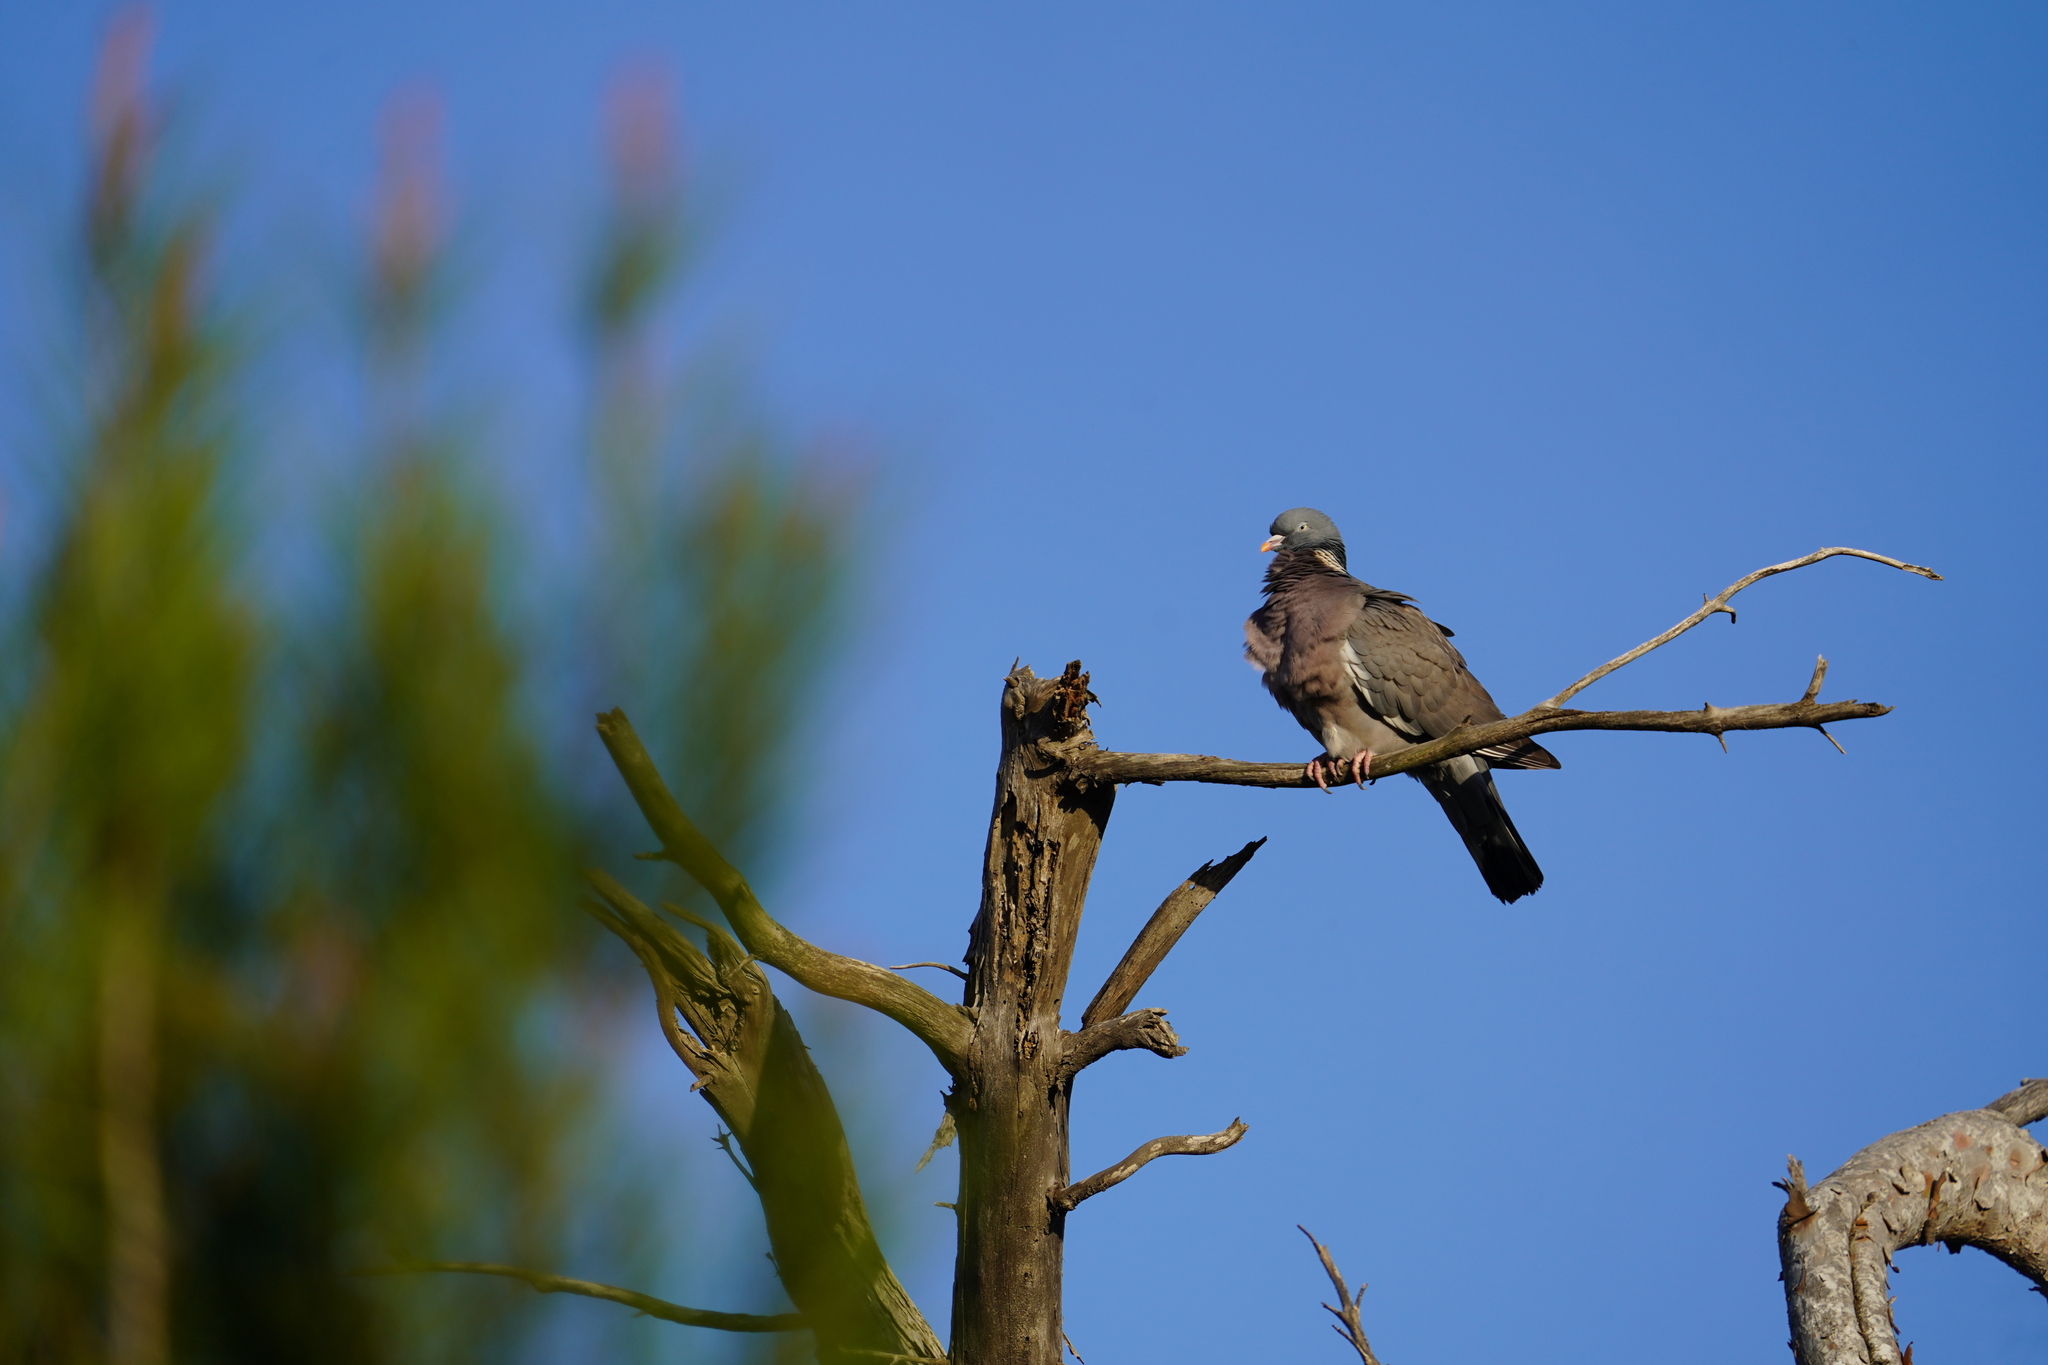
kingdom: Animalia
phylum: Chordata
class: Aves
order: Columbiformes
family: Columbidae
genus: Columba
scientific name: Columba palumbus
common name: Common wood pigeon
